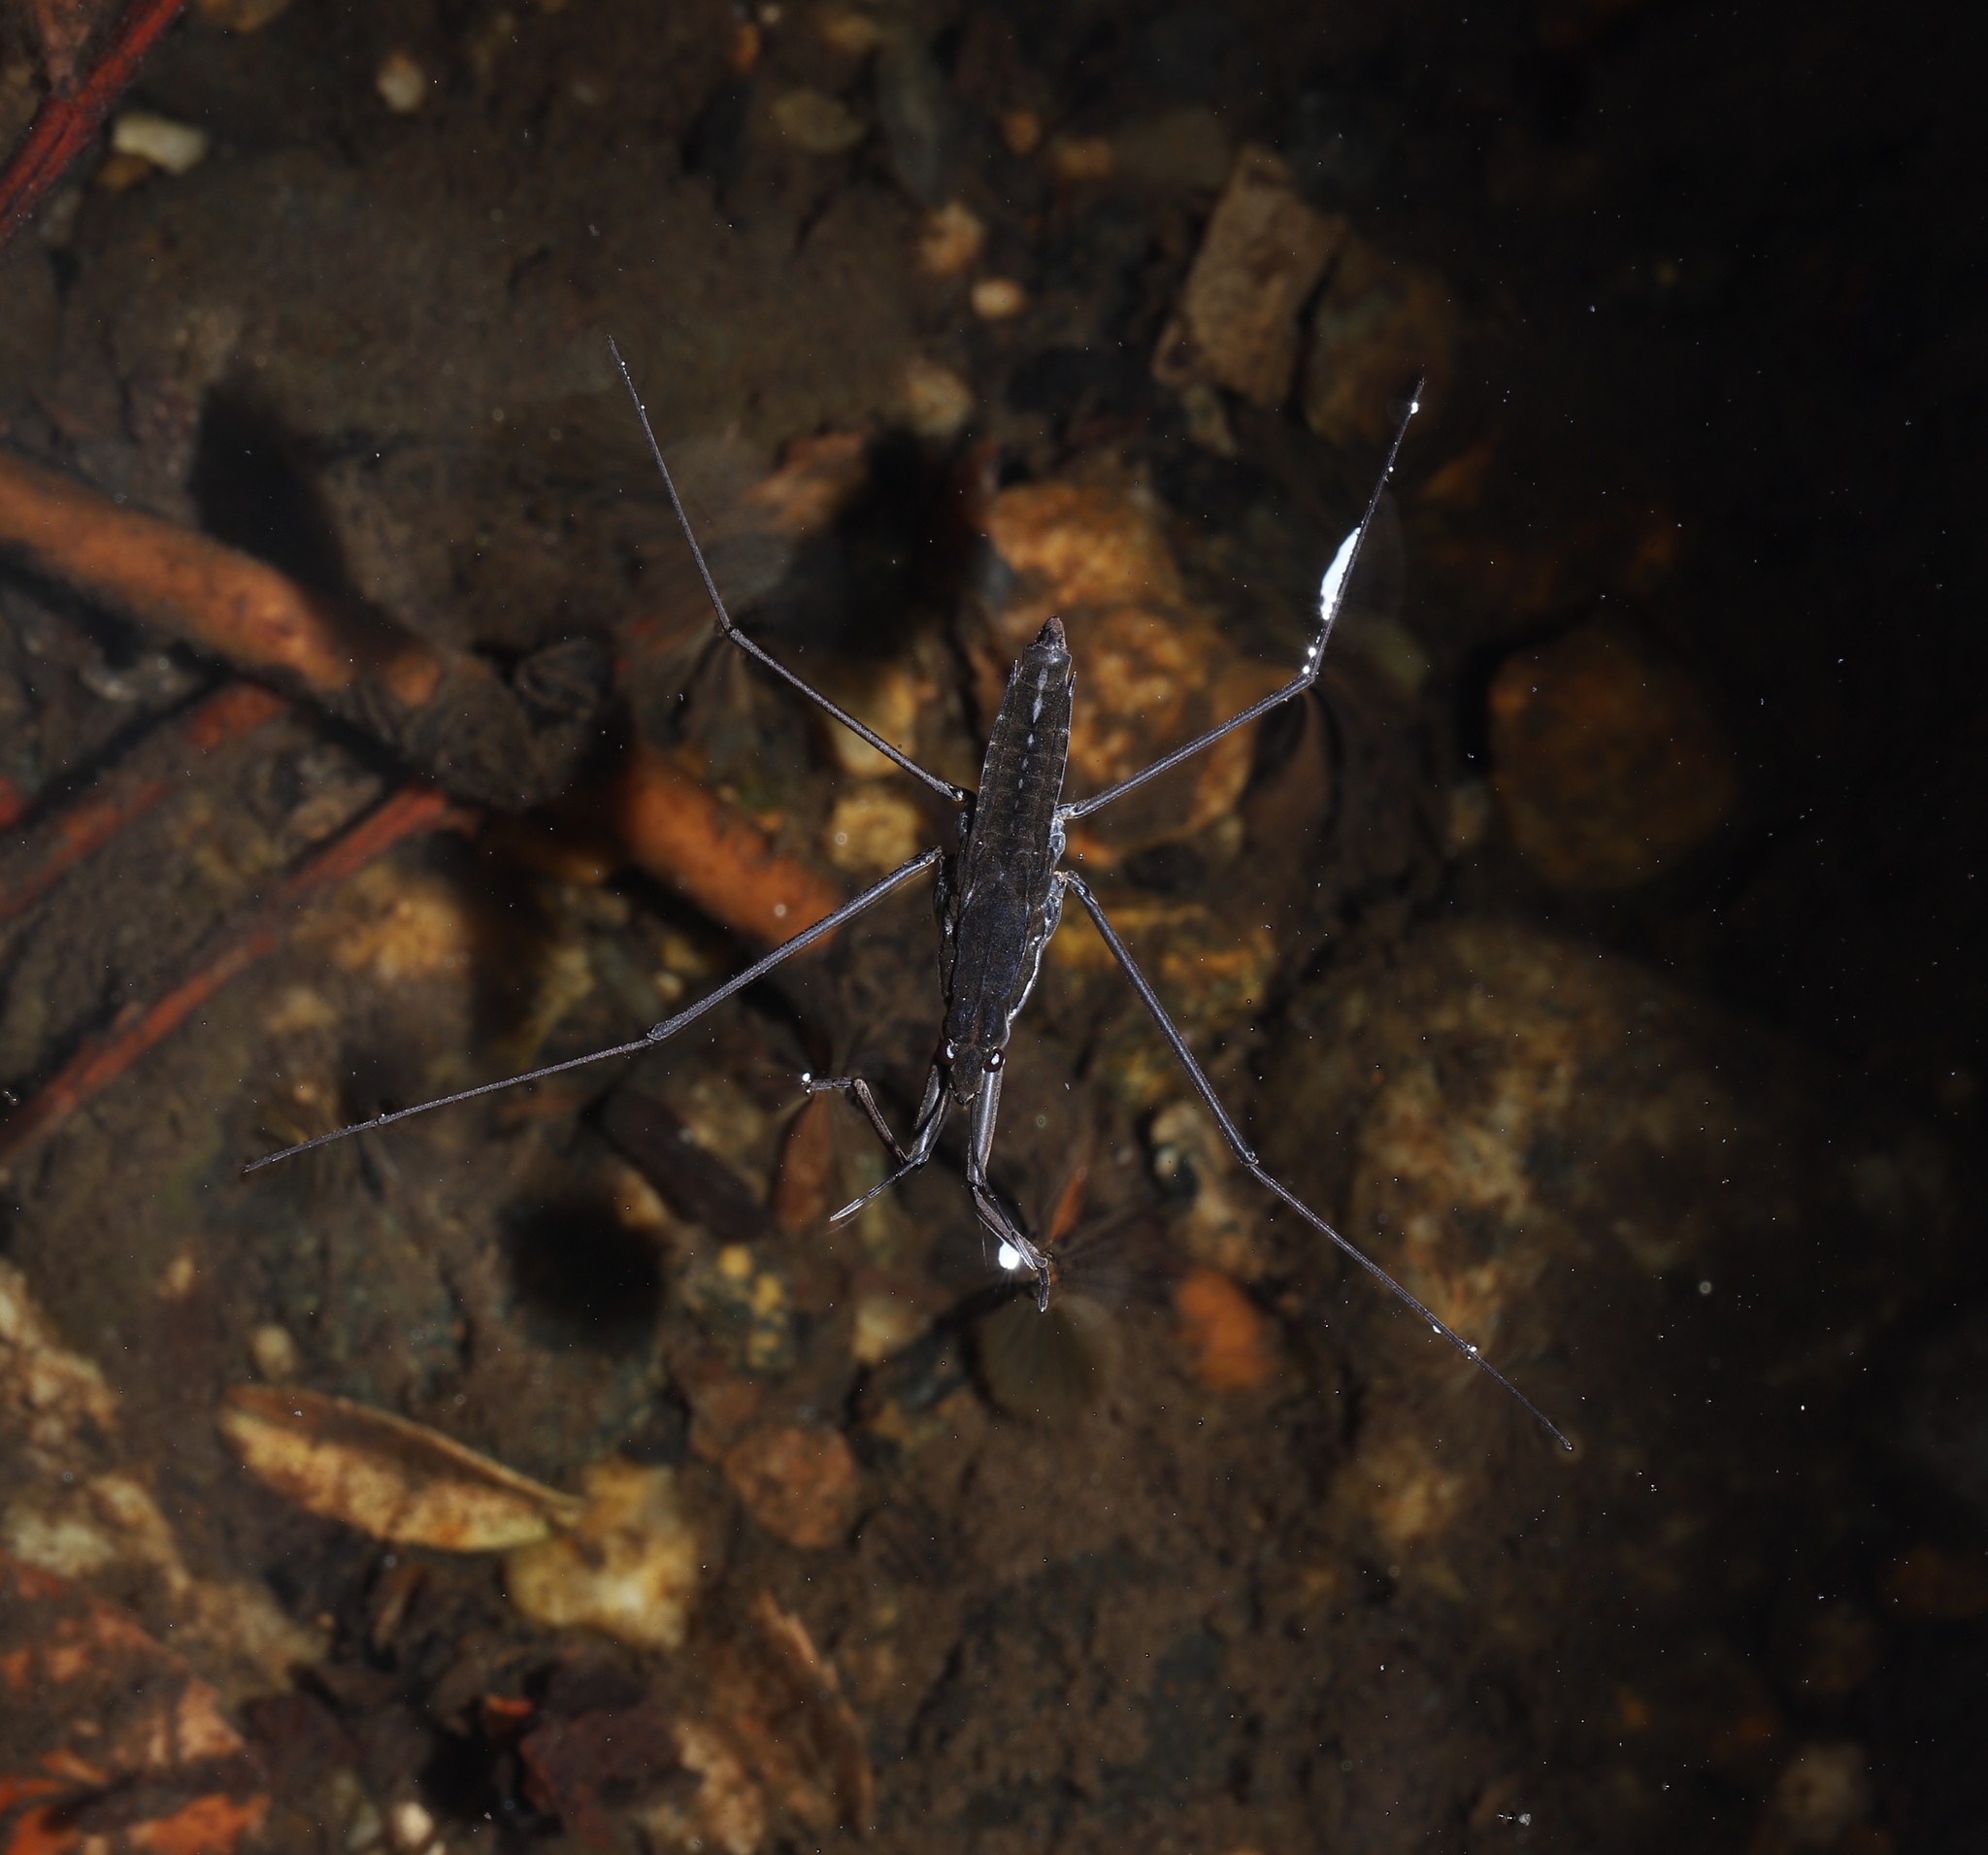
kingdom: Animalia
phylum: Arthropoda
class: Insecta
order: Hemiptera
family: Gerridae
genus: Aquarius
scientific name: Aquarius remigis
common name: Common water strider
